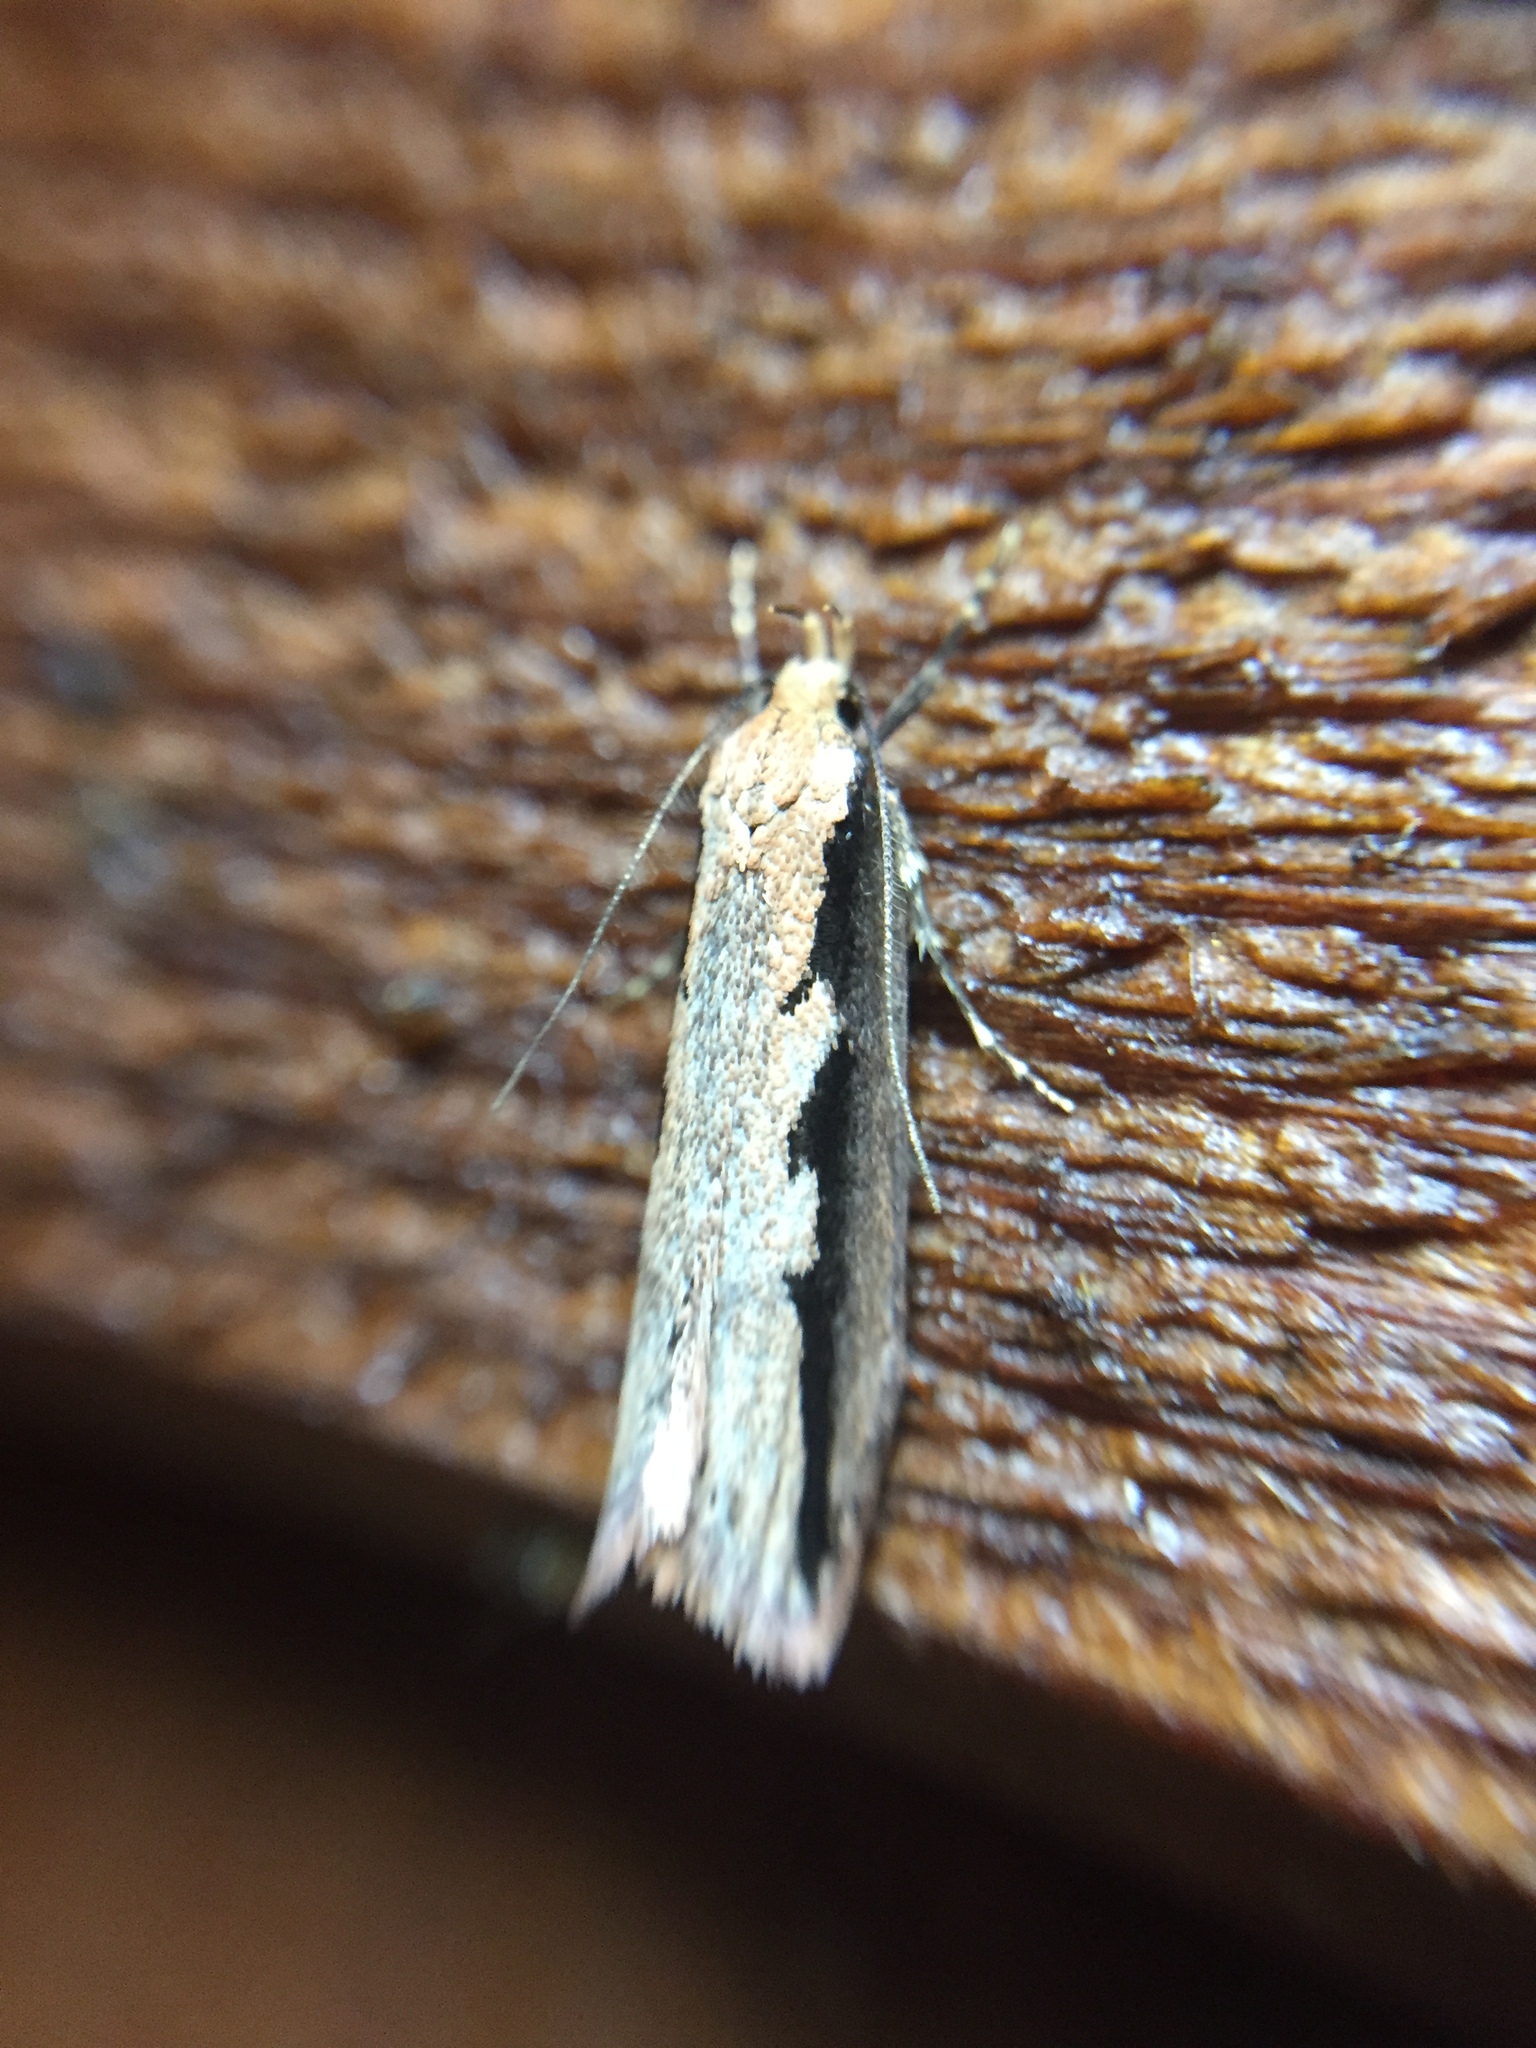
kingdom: Animalia
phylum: Arthropoda
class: Insecta
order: Lepidoptera
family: Oecophoridae
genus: Leptocroca
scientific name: Leptocroca sanguinolenta
